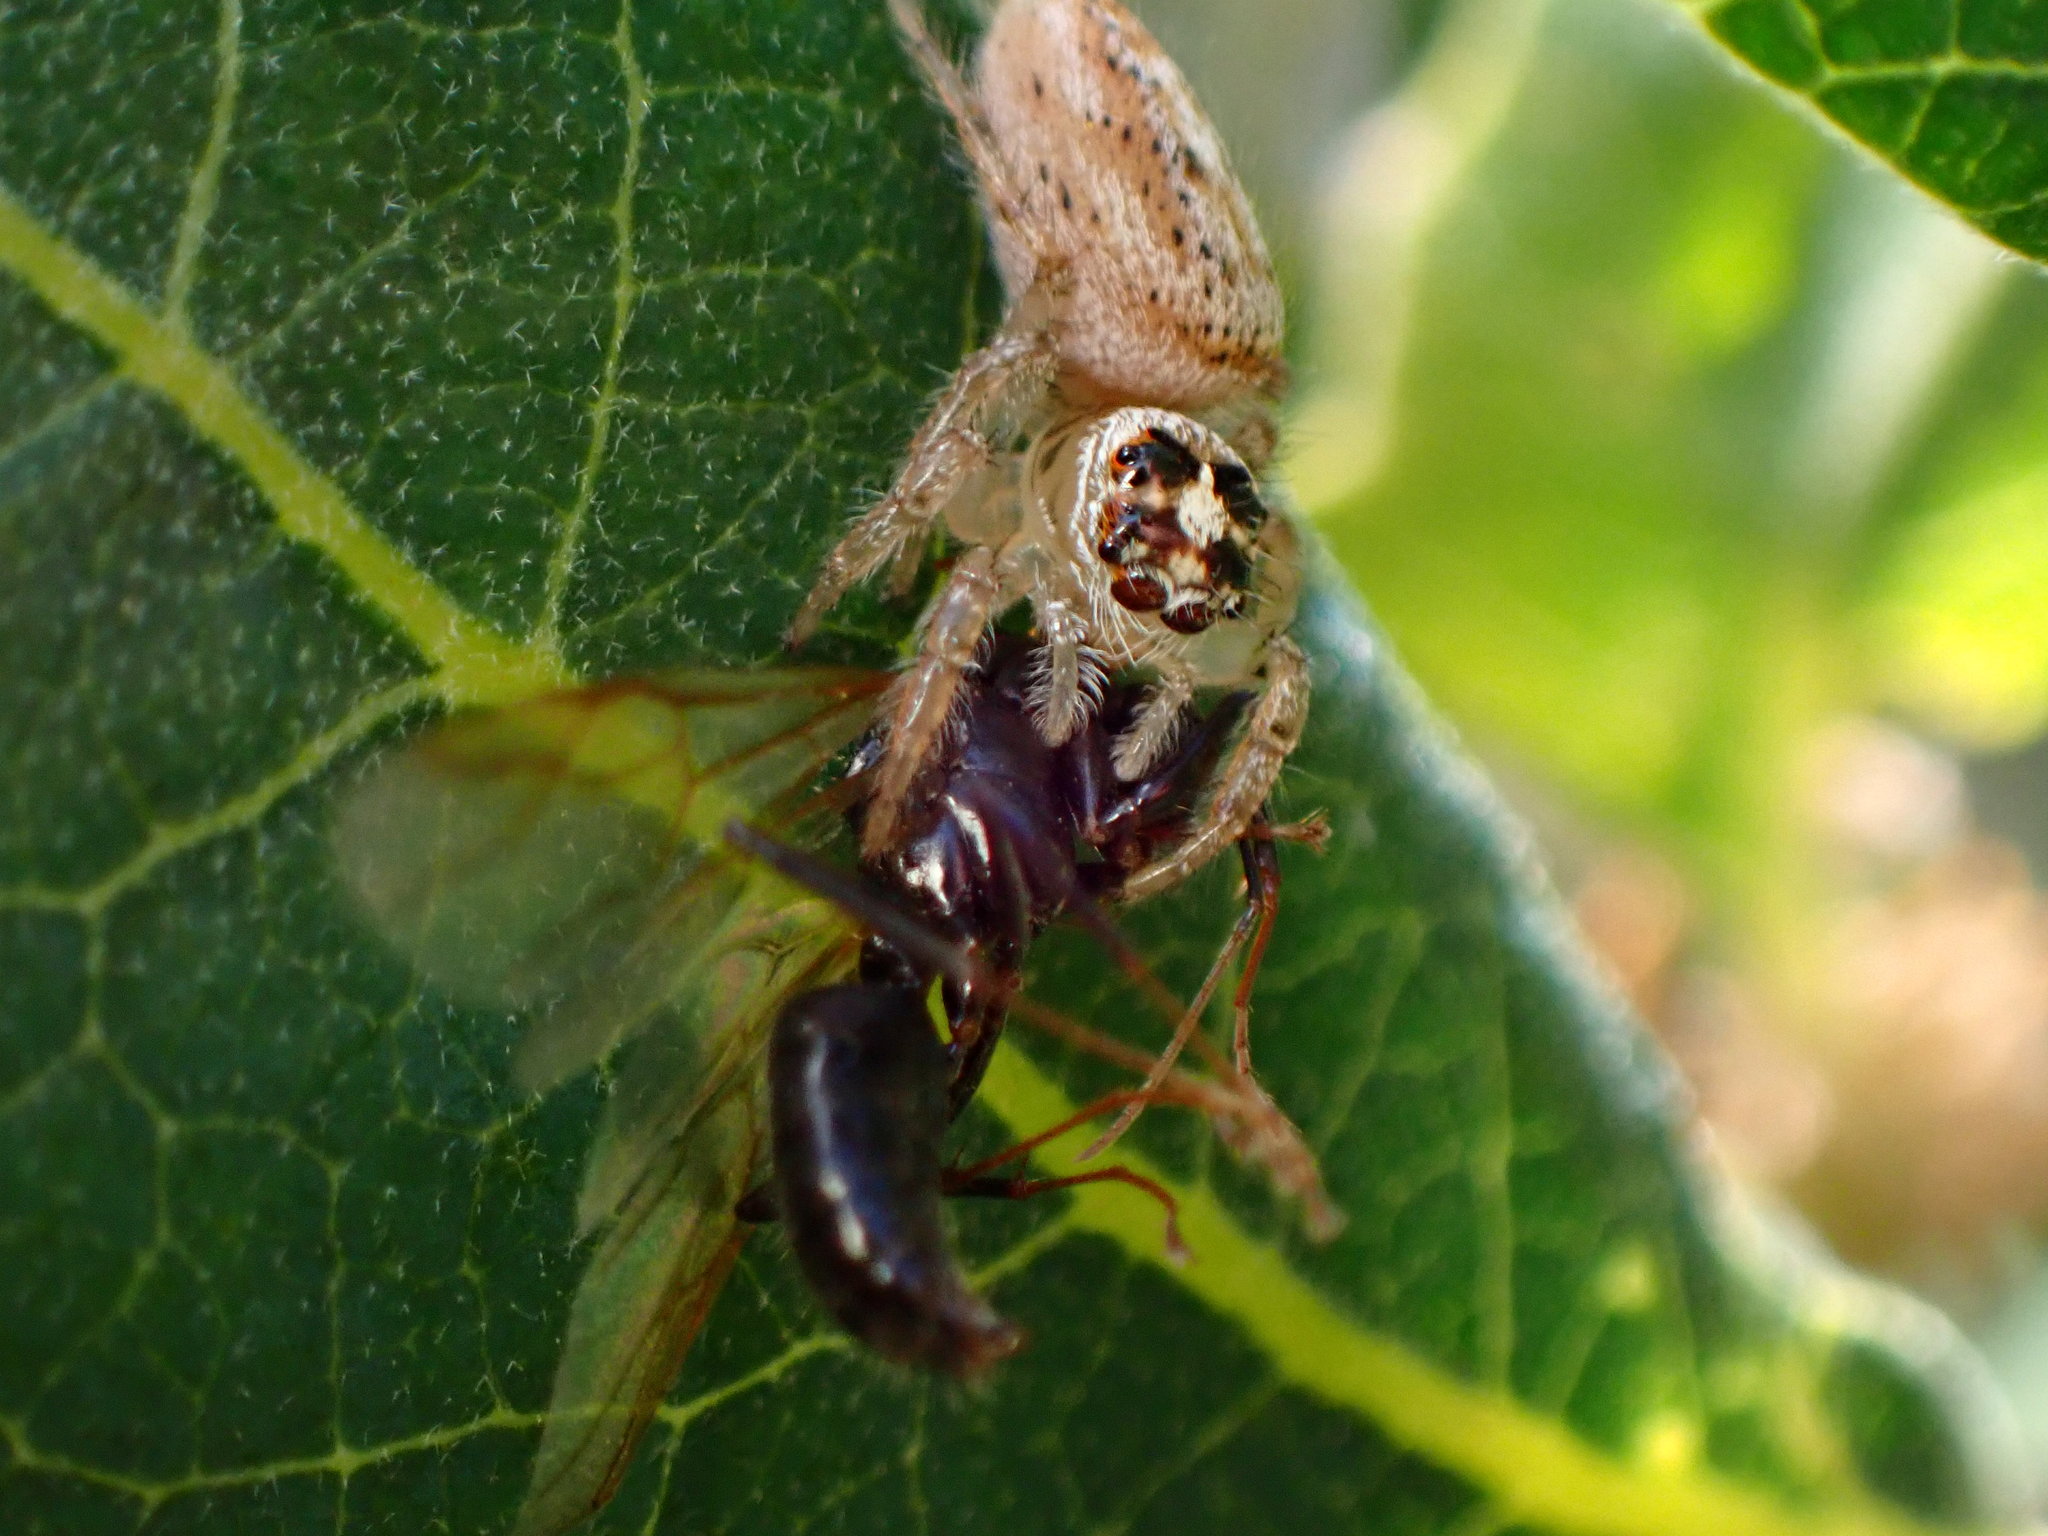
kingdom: Animalia
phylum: Arthropoda
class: Arachnida
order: Araneae
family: Salticidae
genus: Colonus
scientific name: Colonus hesperus
